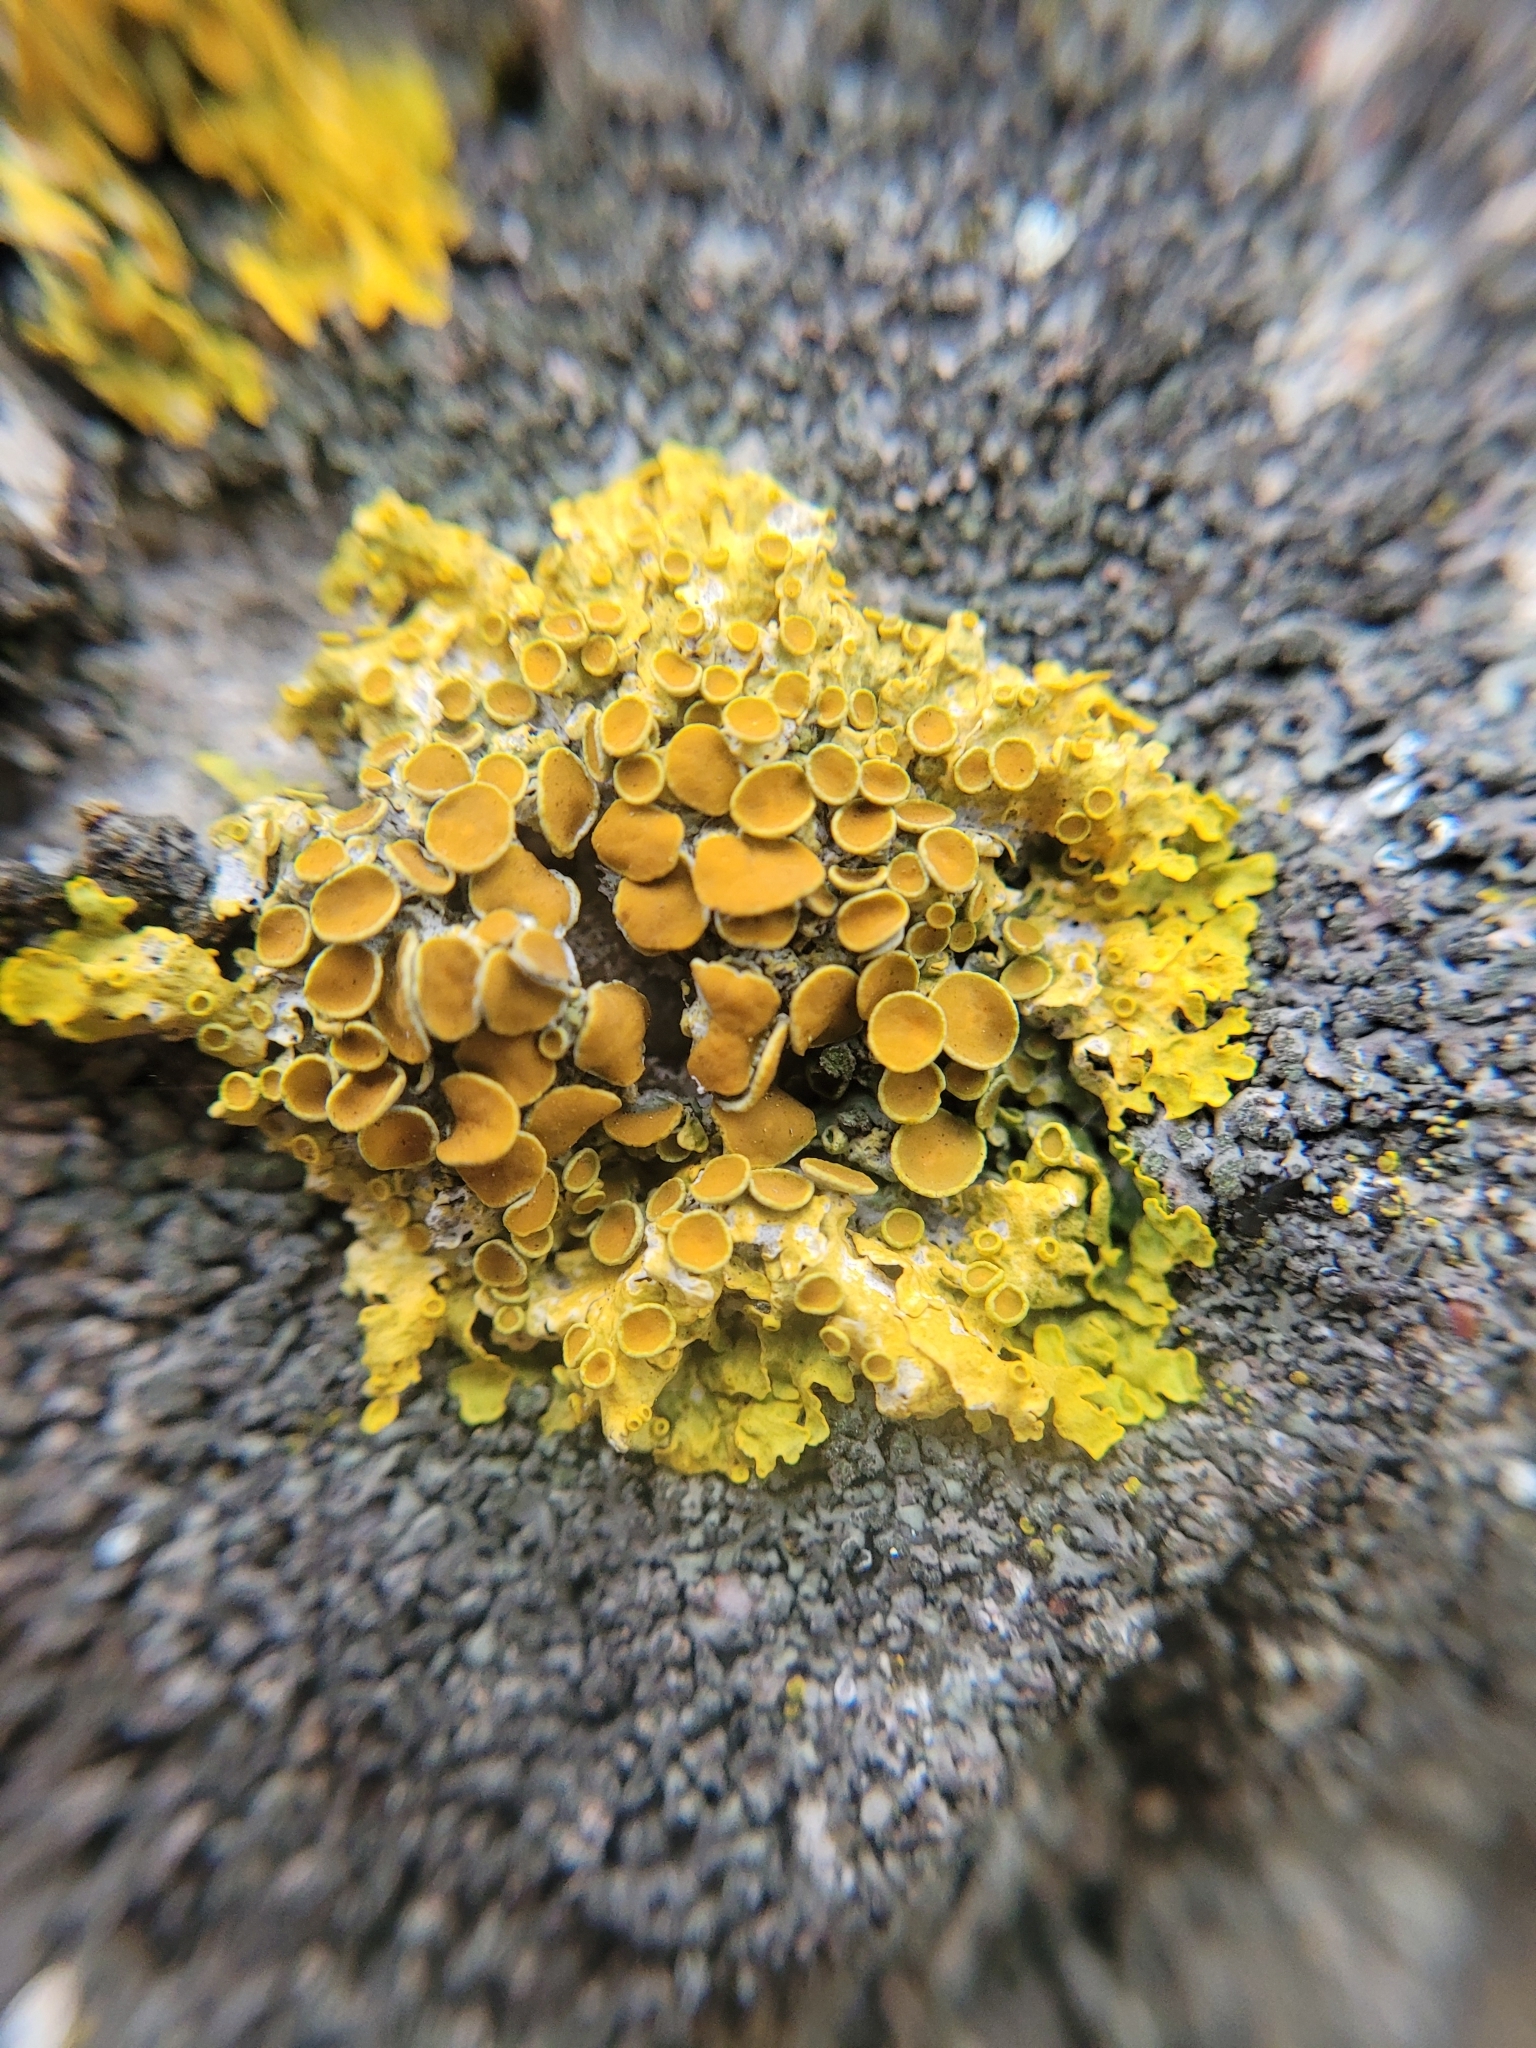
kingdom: Fungi
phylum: Ascomycota
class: Lecanoromycetes
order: Teloschistales
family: Teloschistaceae
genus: Xanthoria
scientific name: Xanthoria parietina
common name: Common orange lichen
